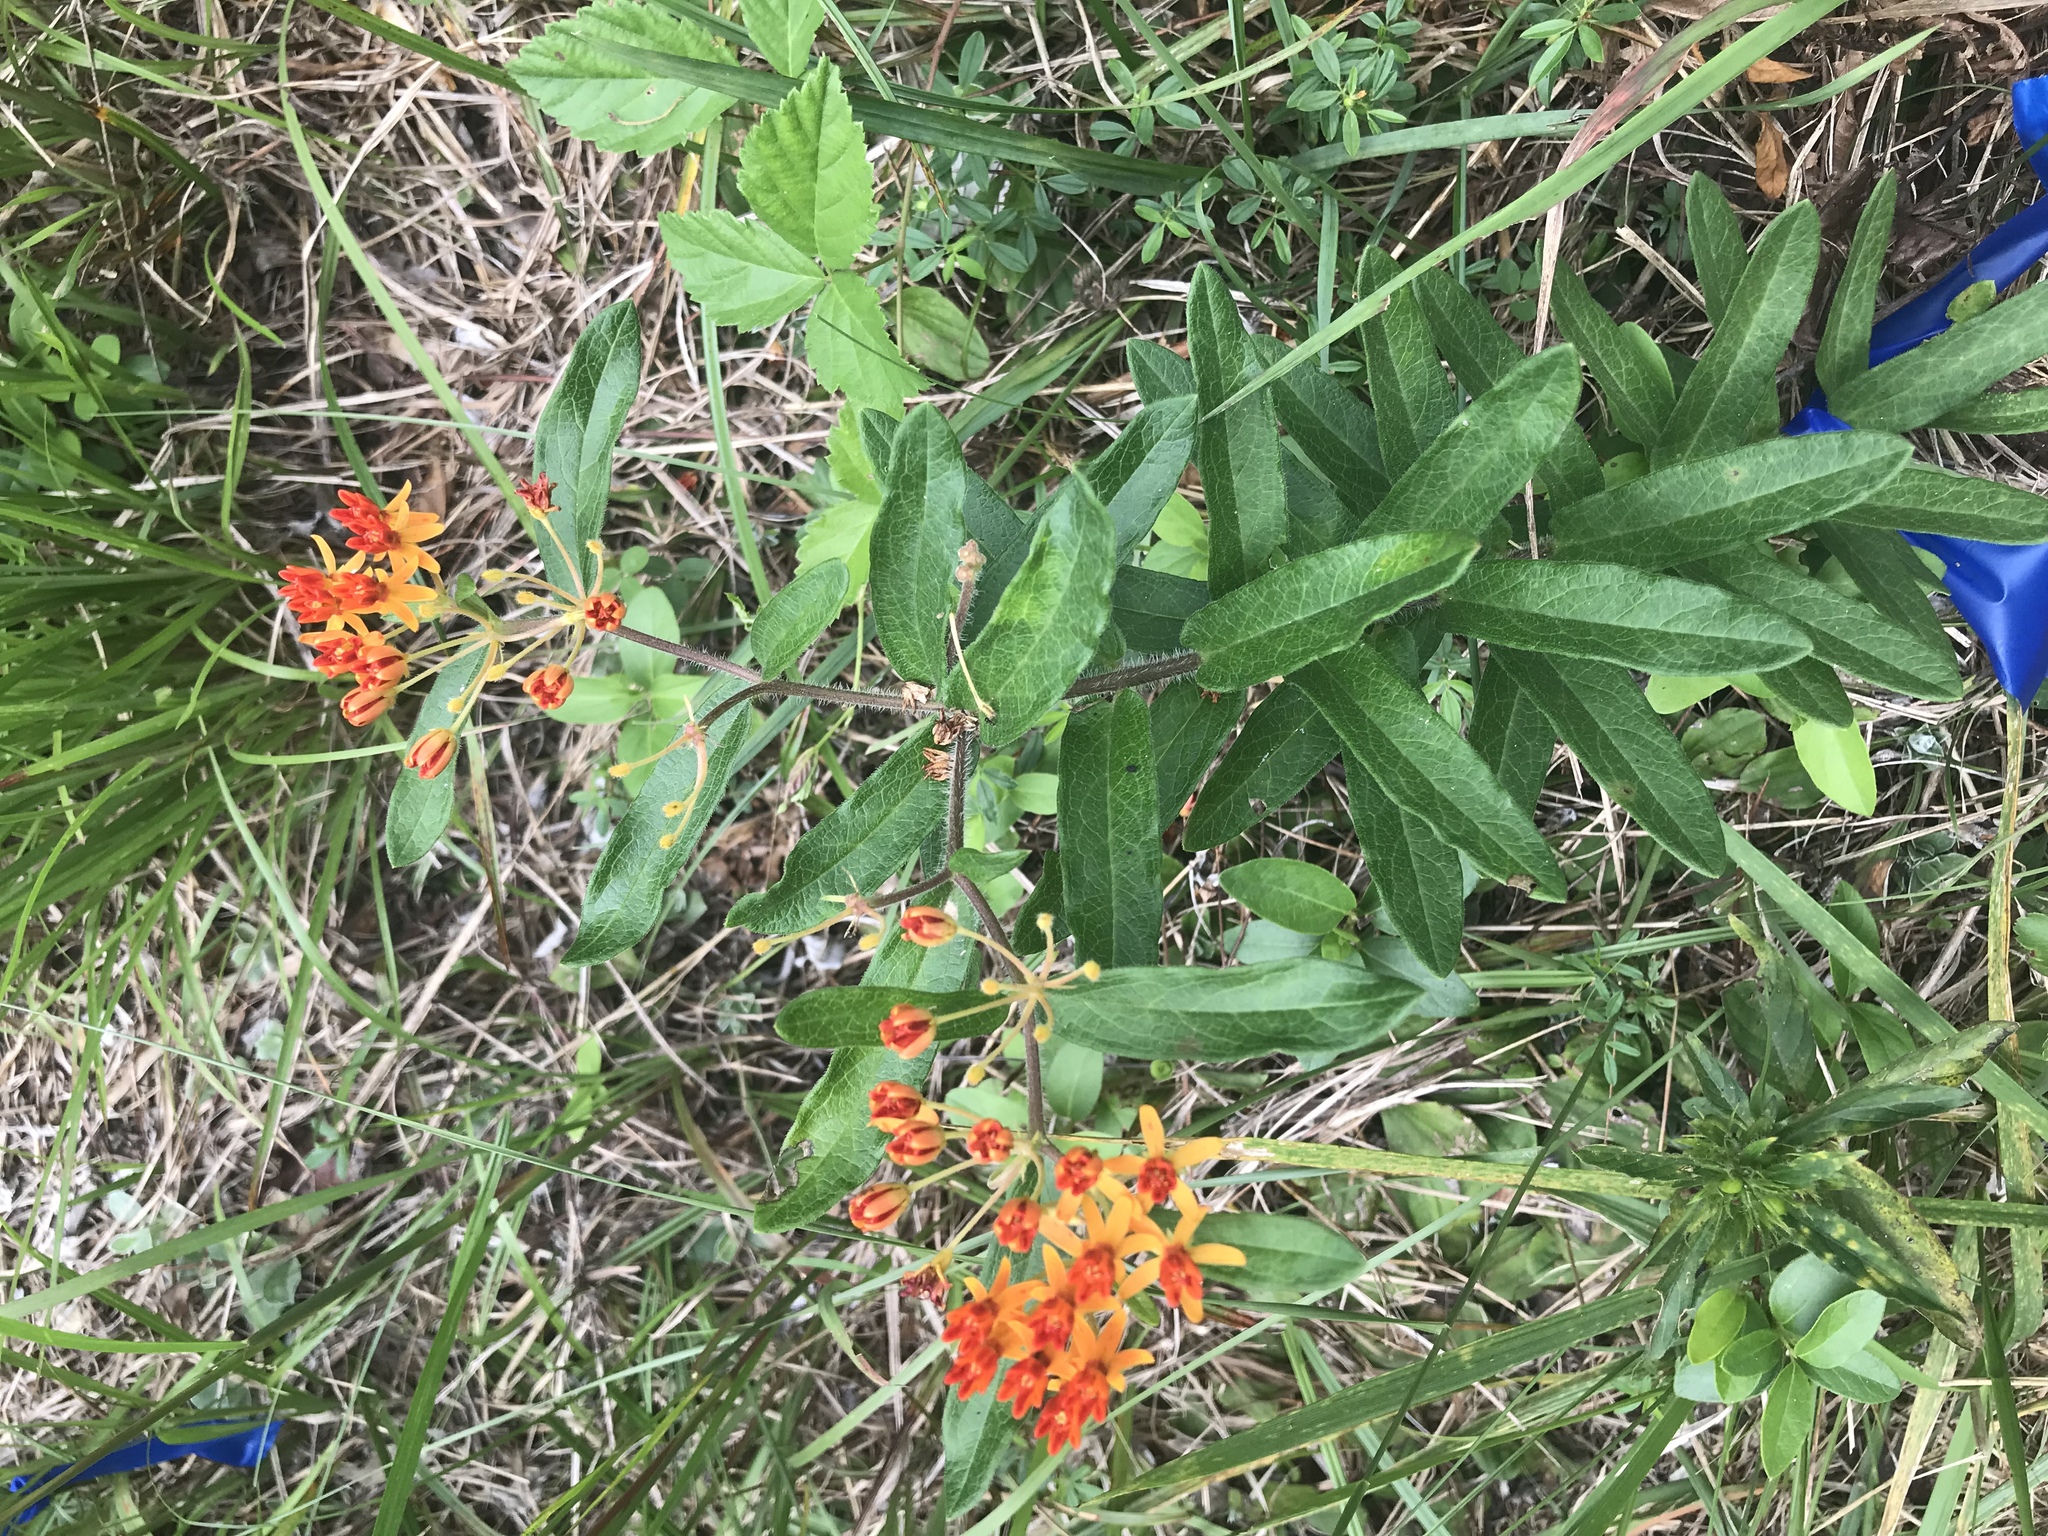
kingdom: Plantae
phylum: Tracheophyta
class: Magnoliopsida
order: Gentianales
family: Apocynaceae
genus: Asclepias
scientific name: Asclepias tuberosa
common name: Butterfly milkweed
